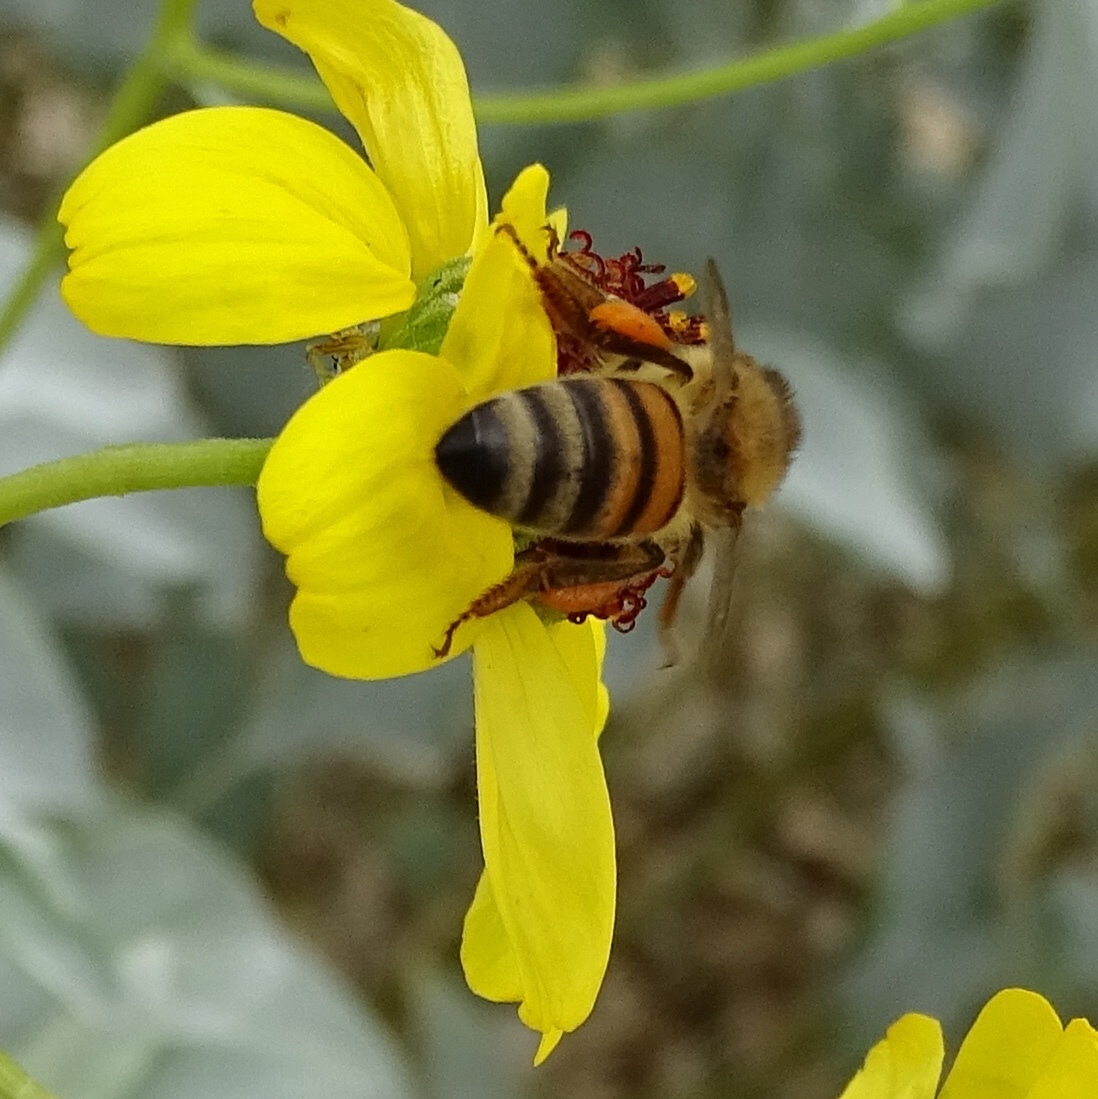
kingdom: Animalia
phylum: Arthropoda
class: Insecta
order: Hymenoptera
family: Apidae
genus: Apis
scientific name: Apis mellifera
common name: Honey bee
